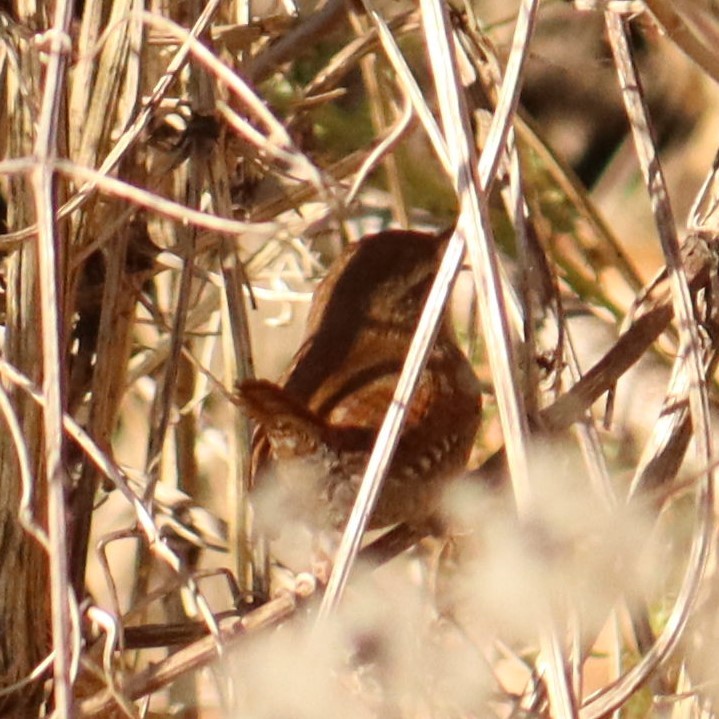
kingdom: Animalia
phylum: Chordata
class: Aves
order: Passeriformes
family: Troglodytidae
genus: Troglodytes
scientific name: Troglodytes troglodytes
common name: Eurasian wren
